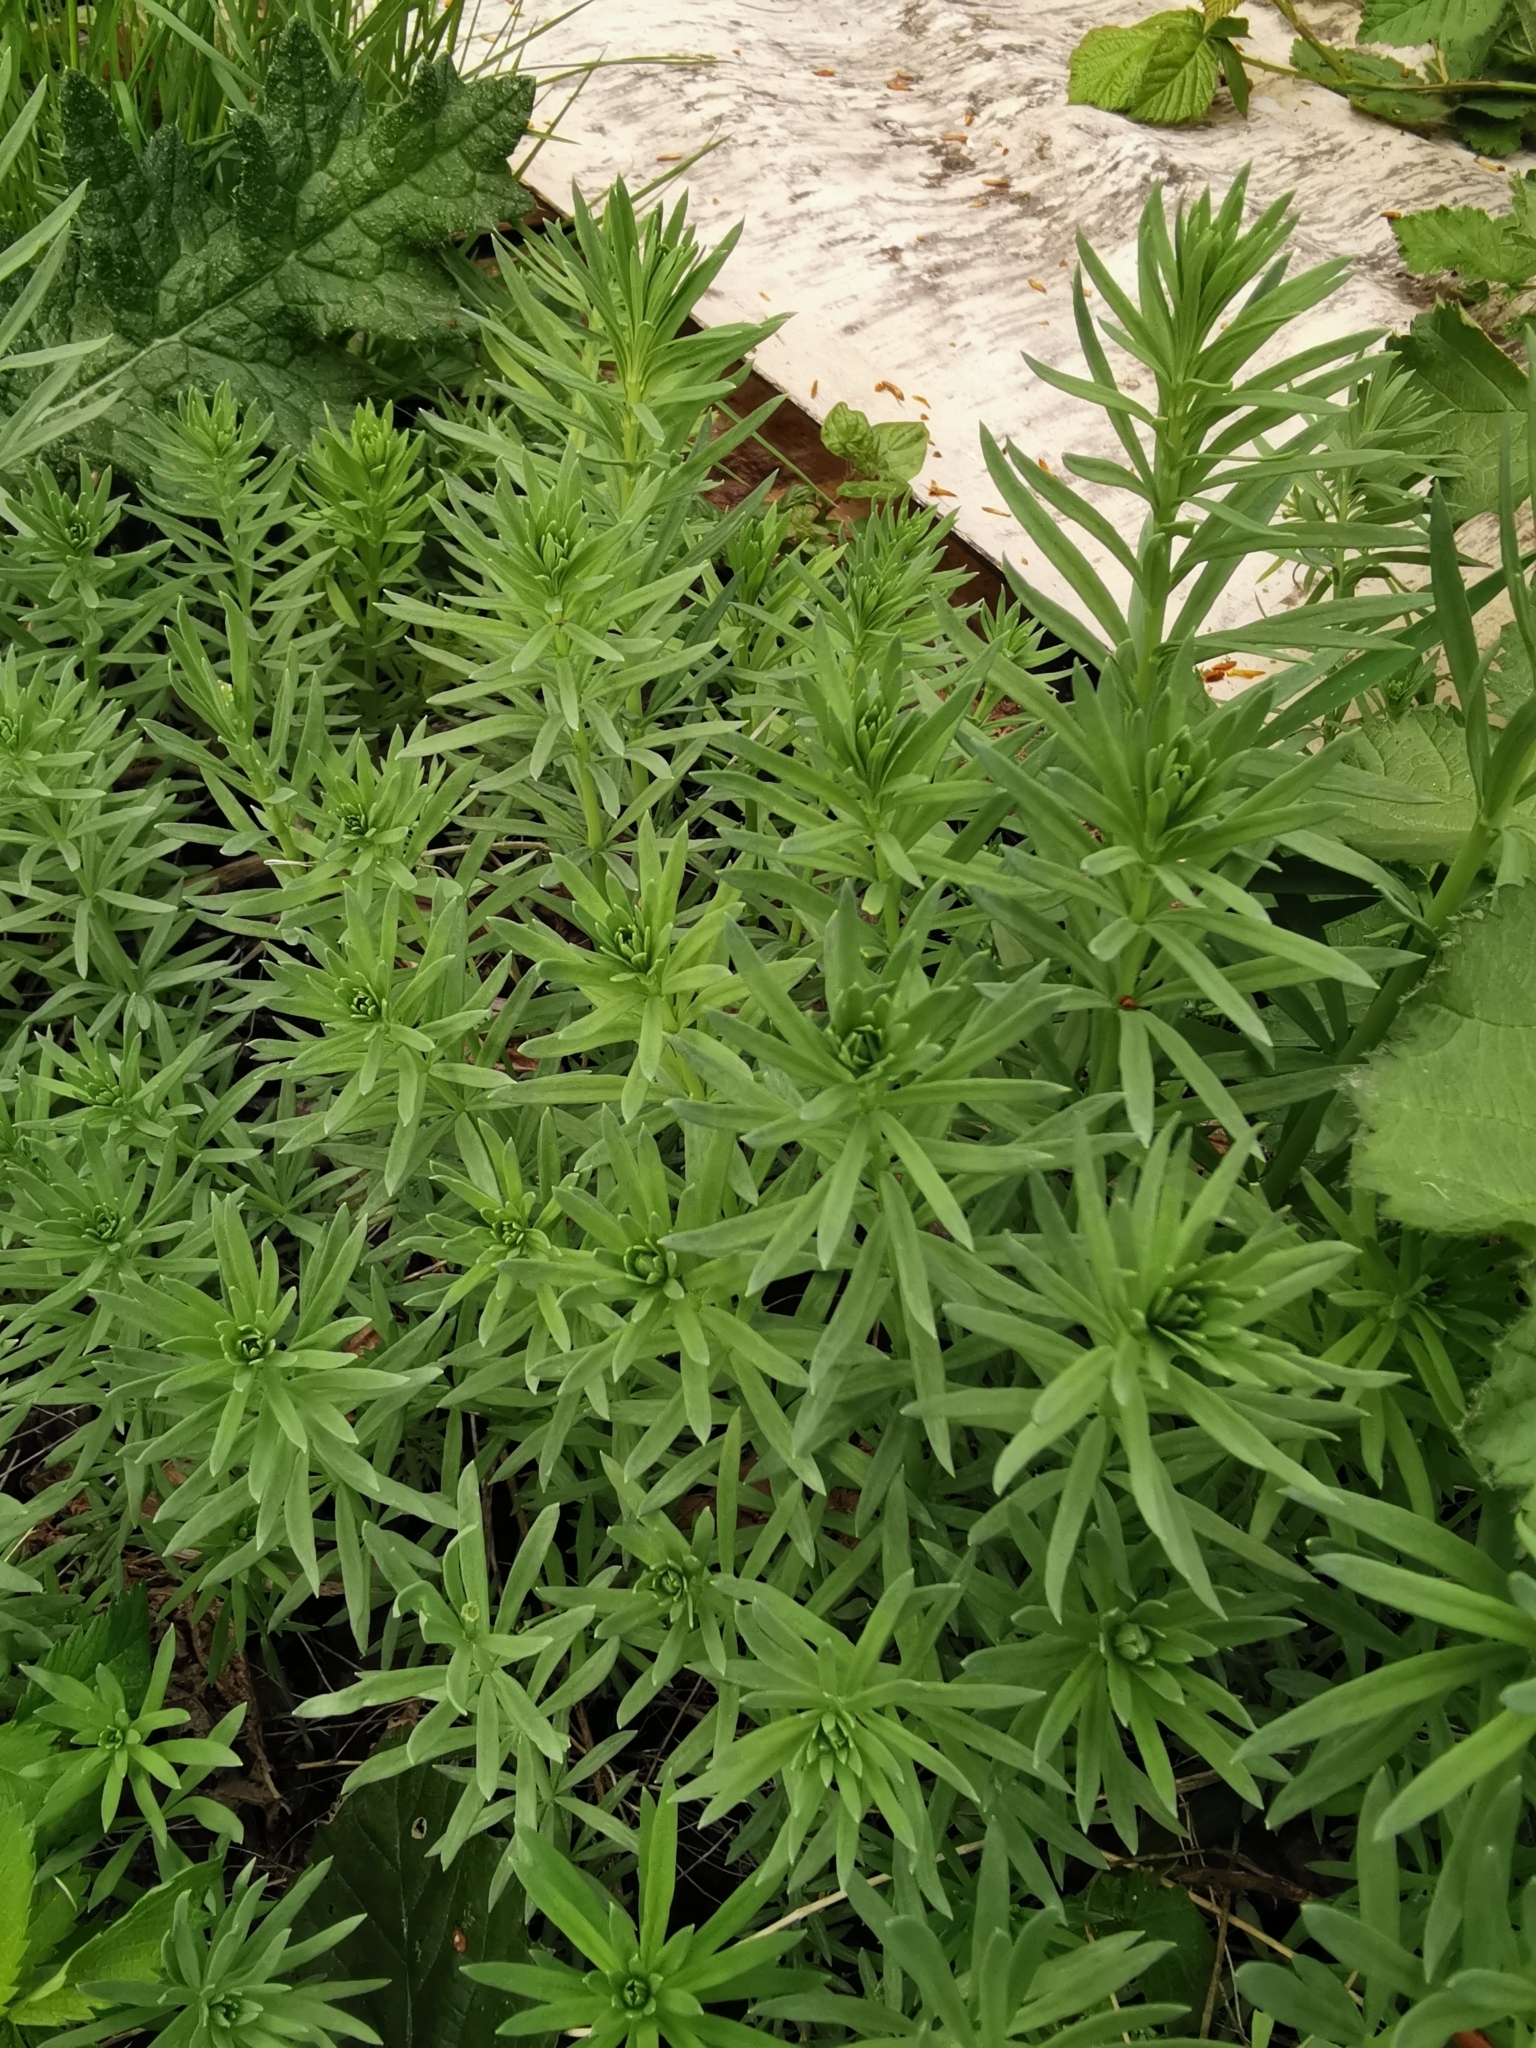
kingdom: Plantae
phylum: Tracheophyta
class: Magnoliopsida
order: Lamiales
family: Plantaginaceae
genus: Linaria
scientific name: Linaria purpurea
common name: Purple toadflax
